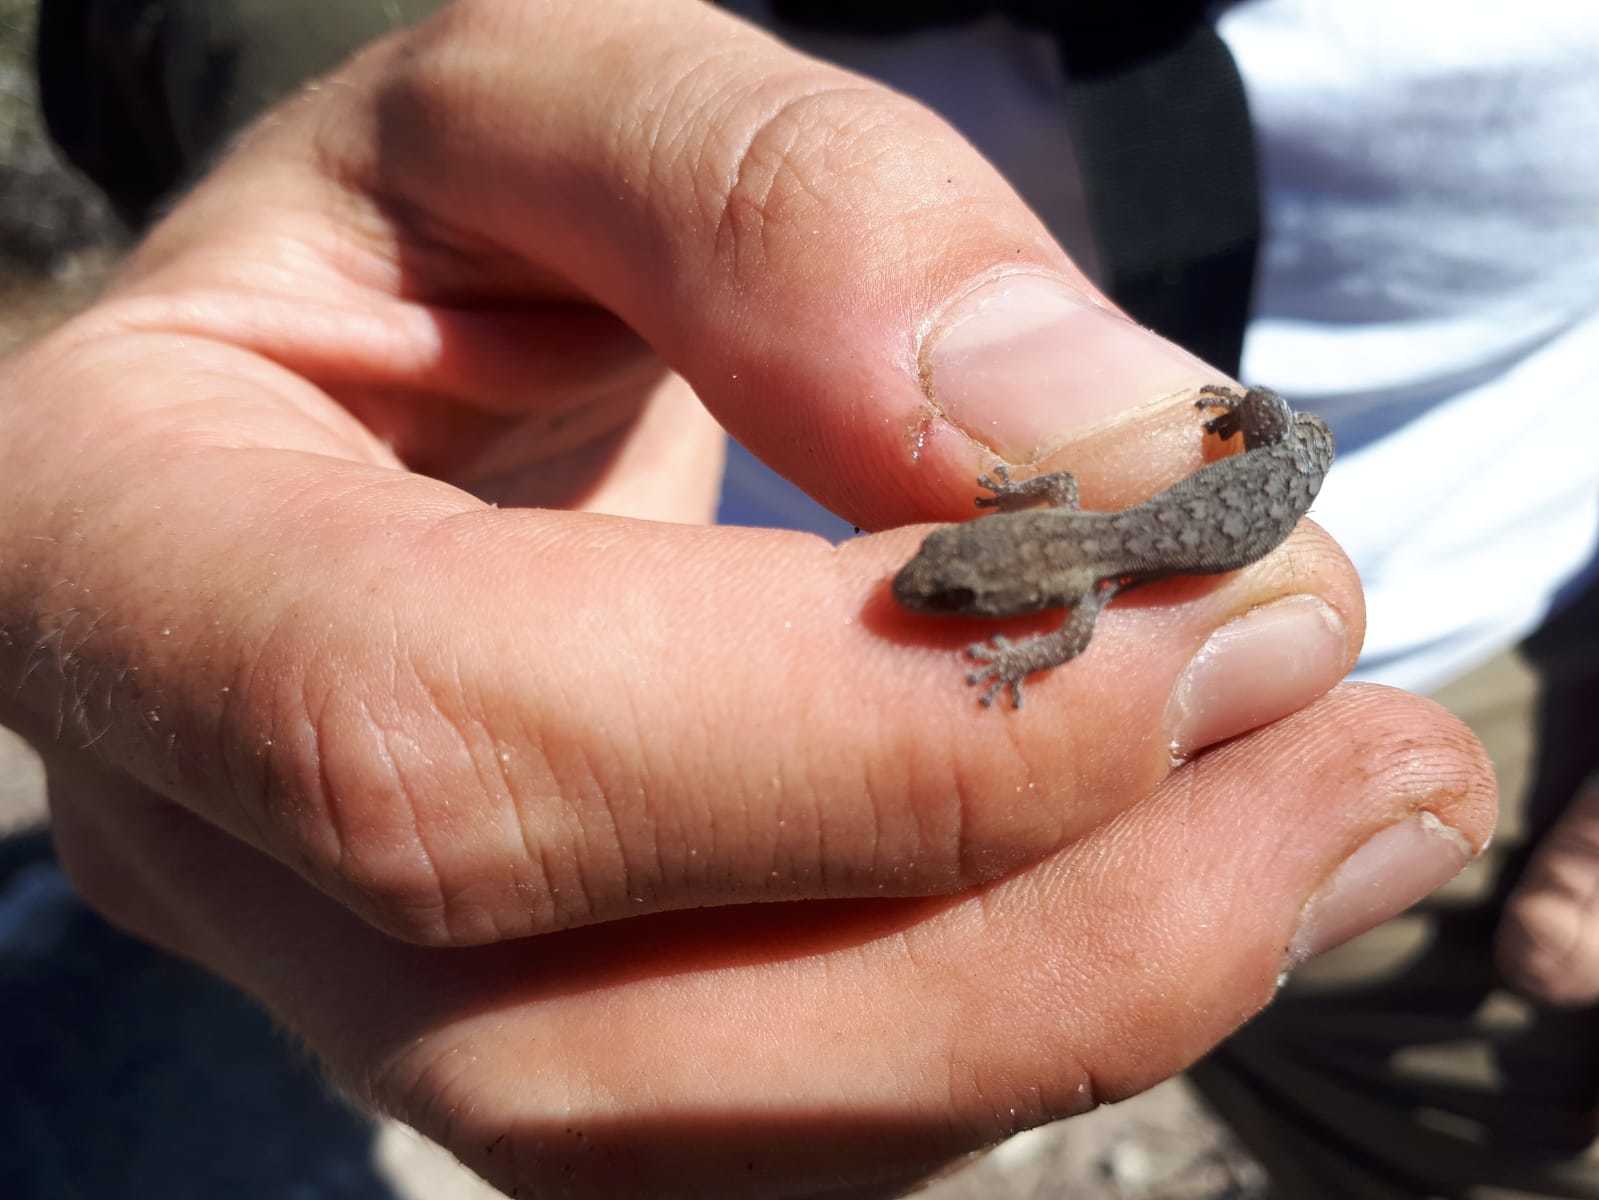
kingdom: Animalia
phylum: Chordata
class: Squamata
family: Gekkonidae
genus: Goggia
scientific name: Goggia incognita
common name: Cryptic pygmy gecko
